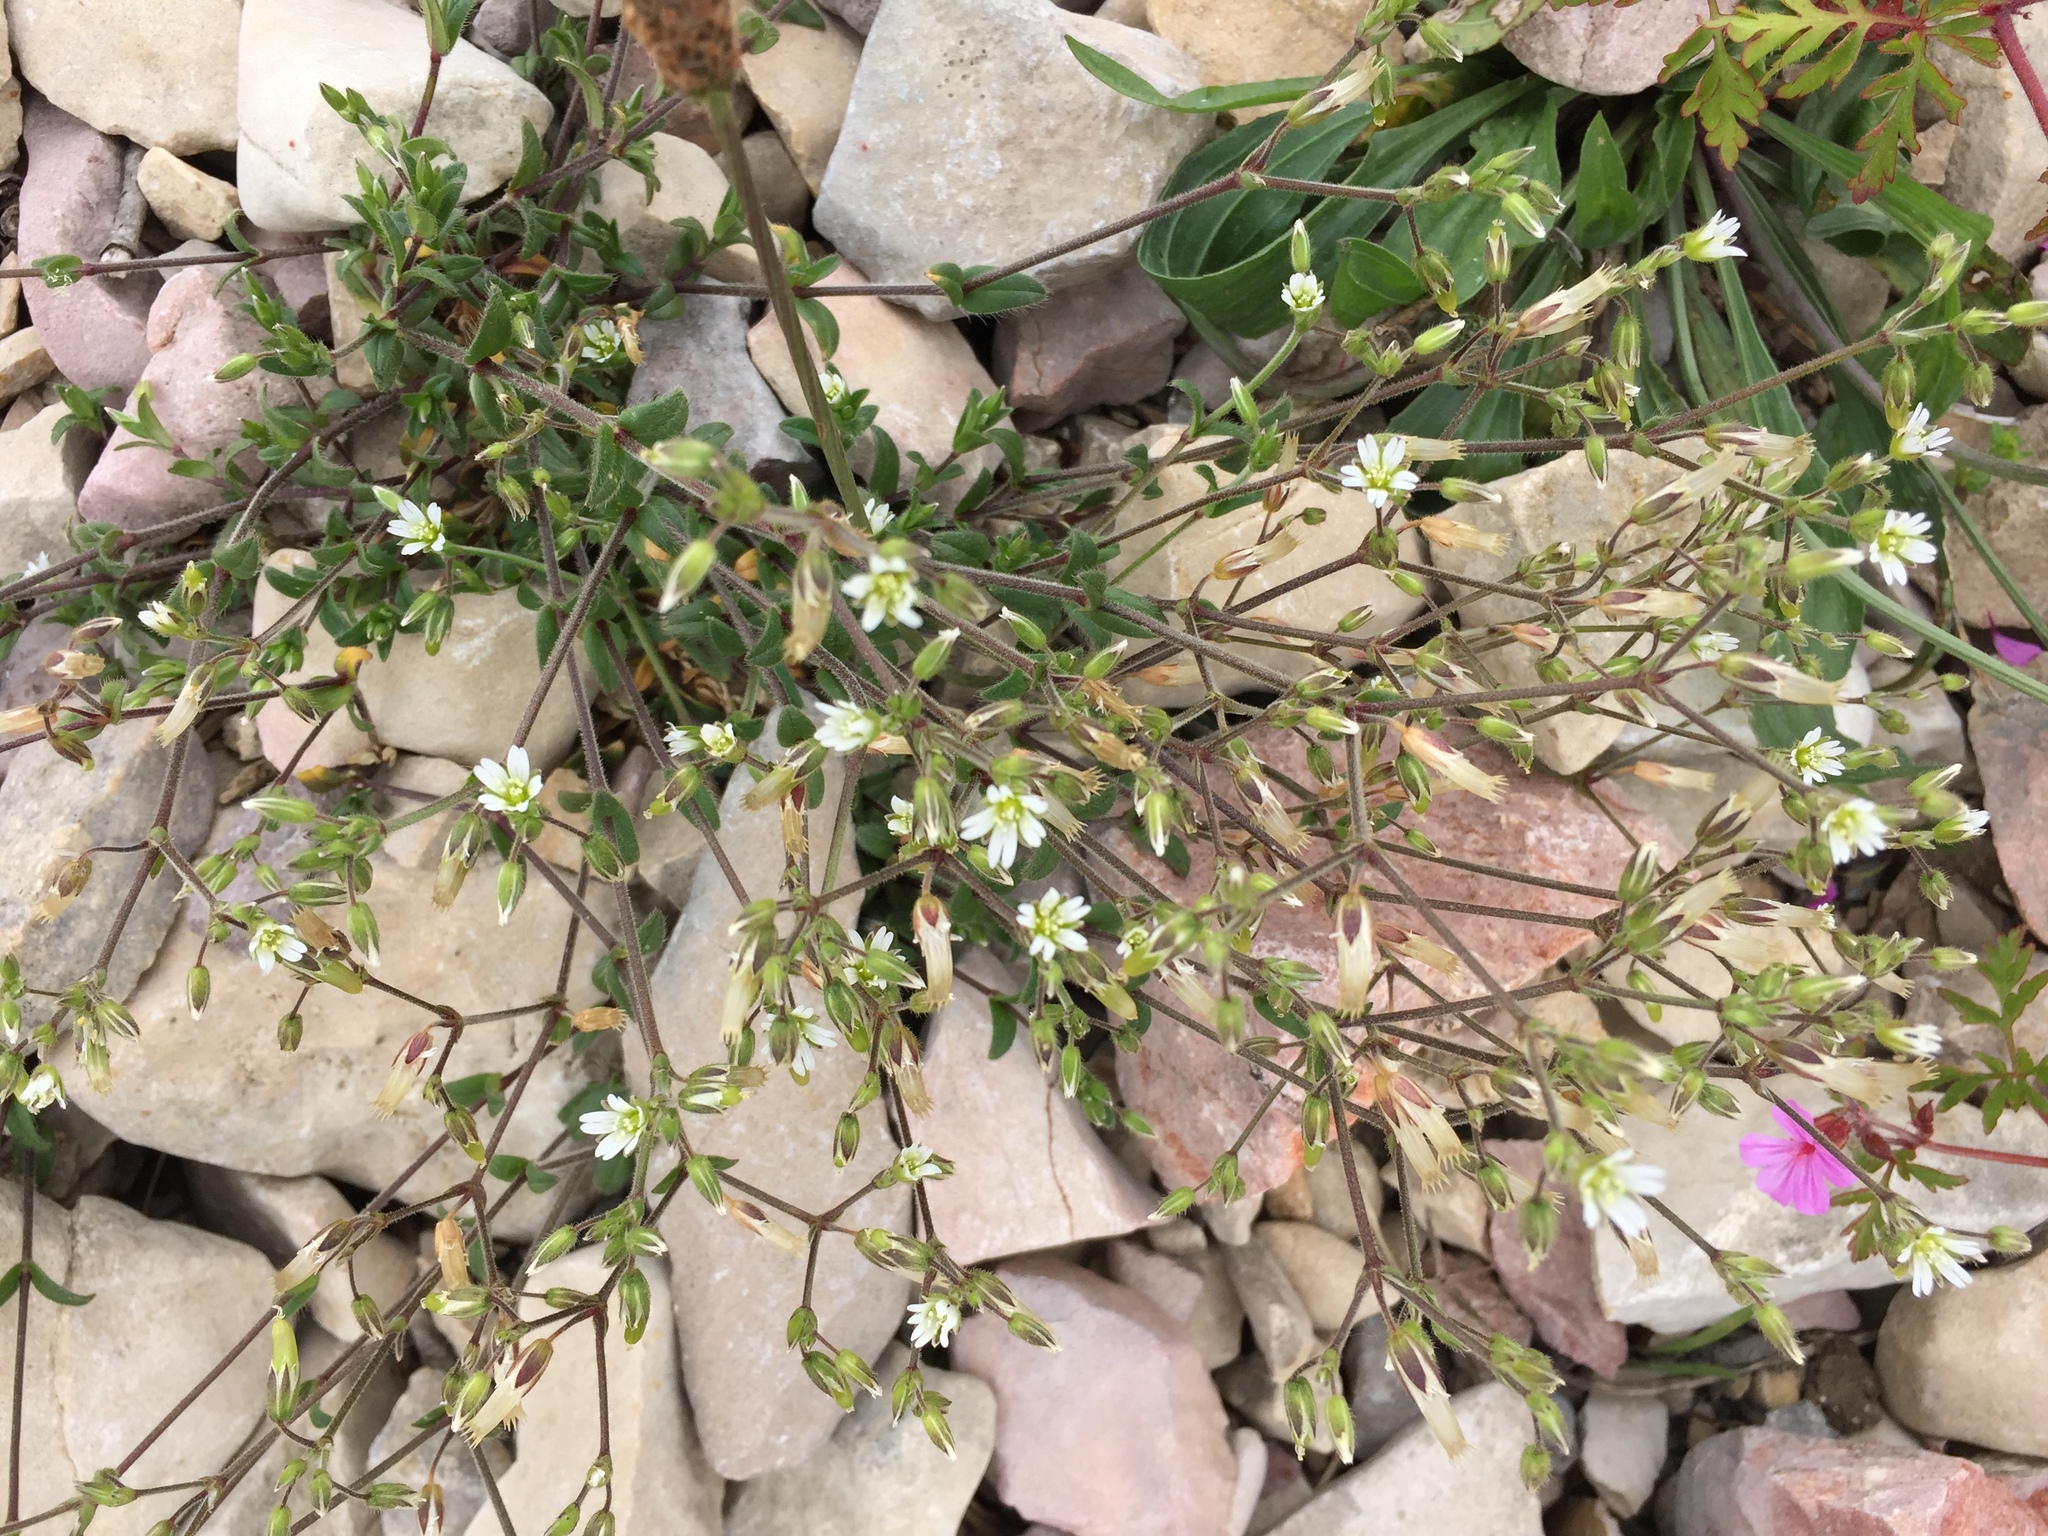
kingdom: Plantae
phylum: Tracheophyta
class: Magnoliopsida
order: Caryophyllales
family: Caryophyllaceae
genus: Cerastium
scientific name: Cerastium fontanum
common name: Common mouse-ear
